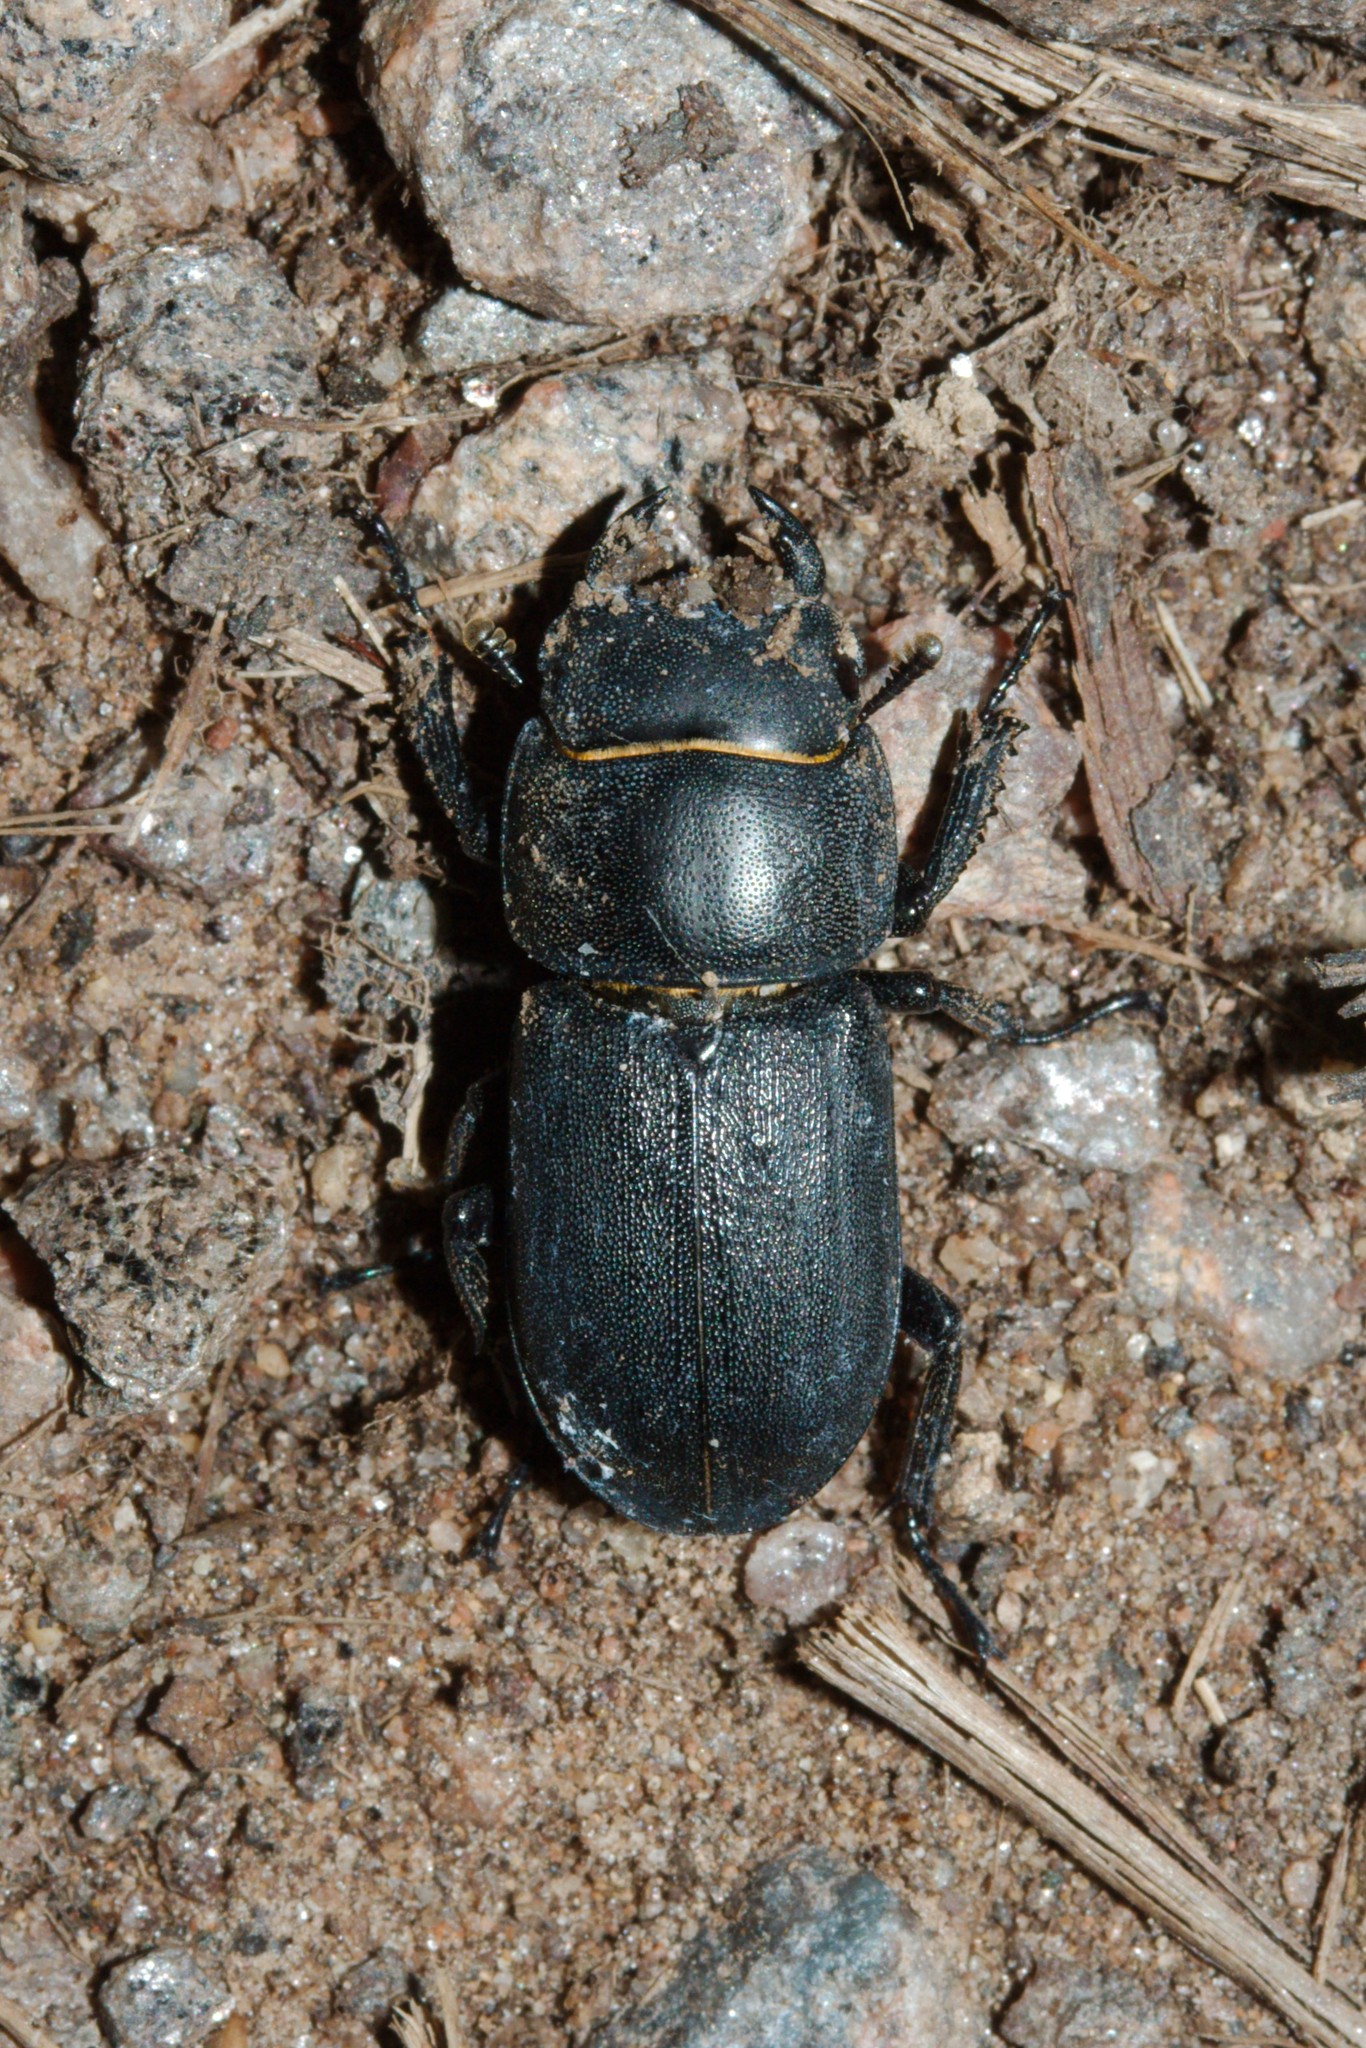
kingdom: Animalia
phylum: Arthropoda
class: Insecta
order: Coleoptera
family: Lucanidae
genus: Dorcus
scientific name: Dorcus parallelipipedus
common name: Lesser stag beetle
